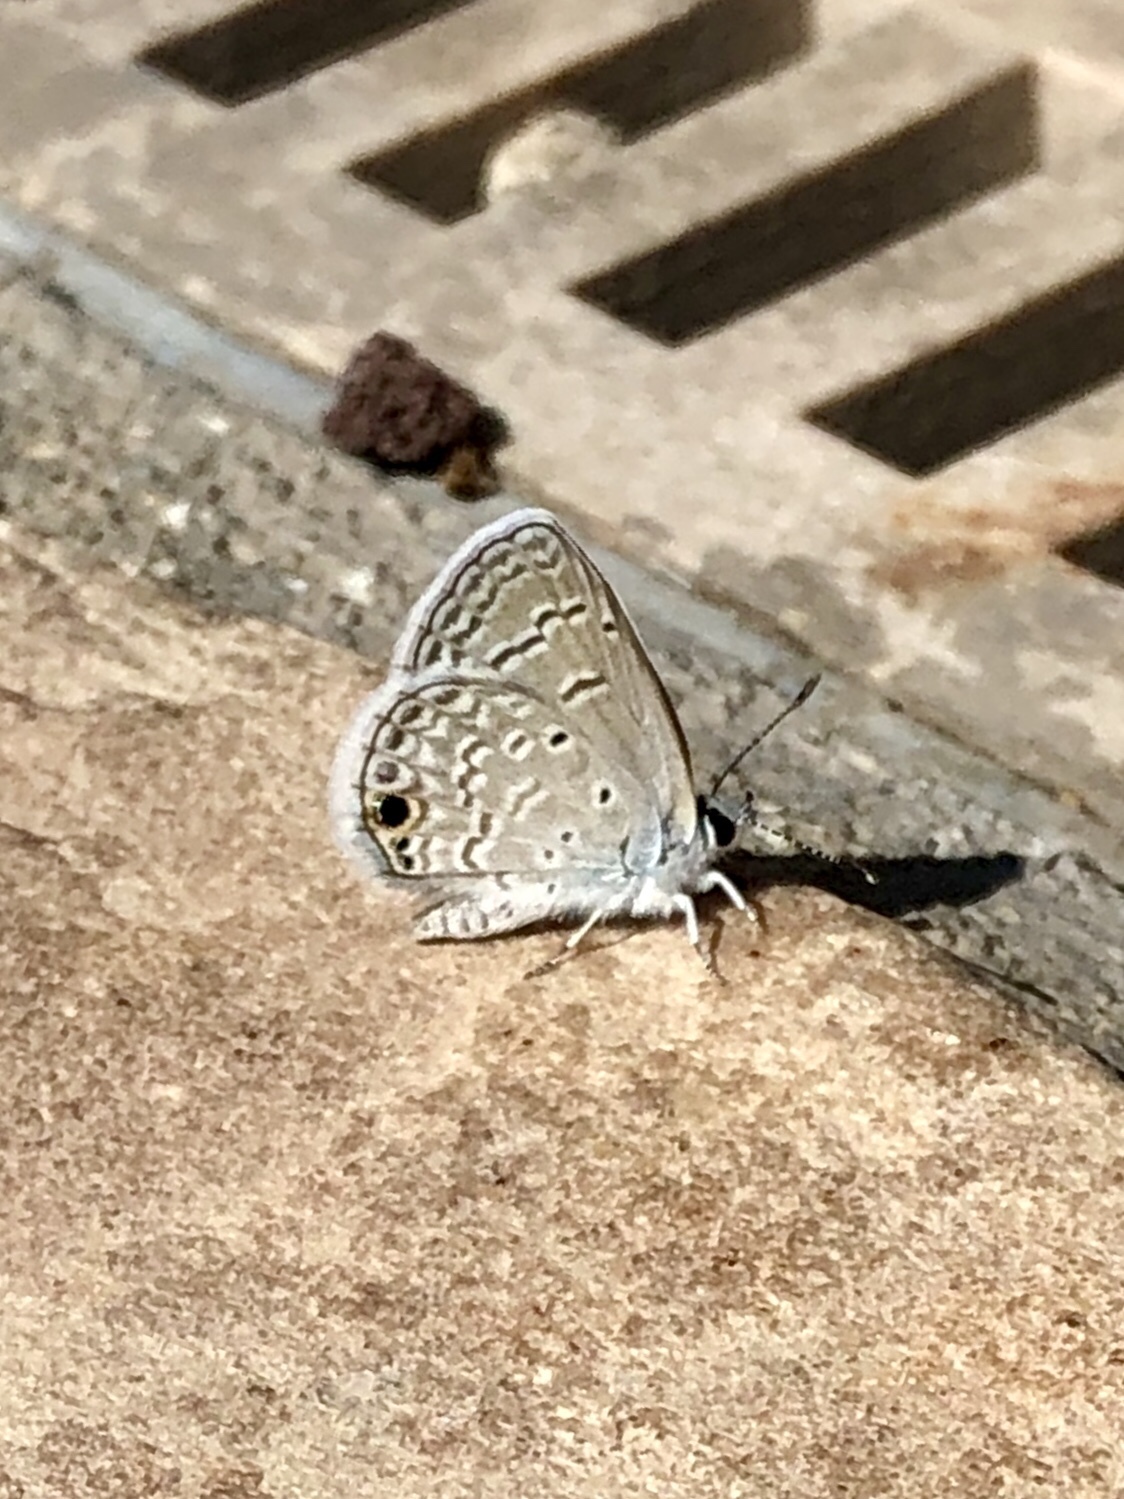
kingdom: Animalia
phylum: Arthropoda
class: Insecta
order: Lepidoptera
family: Lycaenidae
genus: Hemiargus
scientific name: Hemiargus ceraunus
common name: Ceraunus blue
